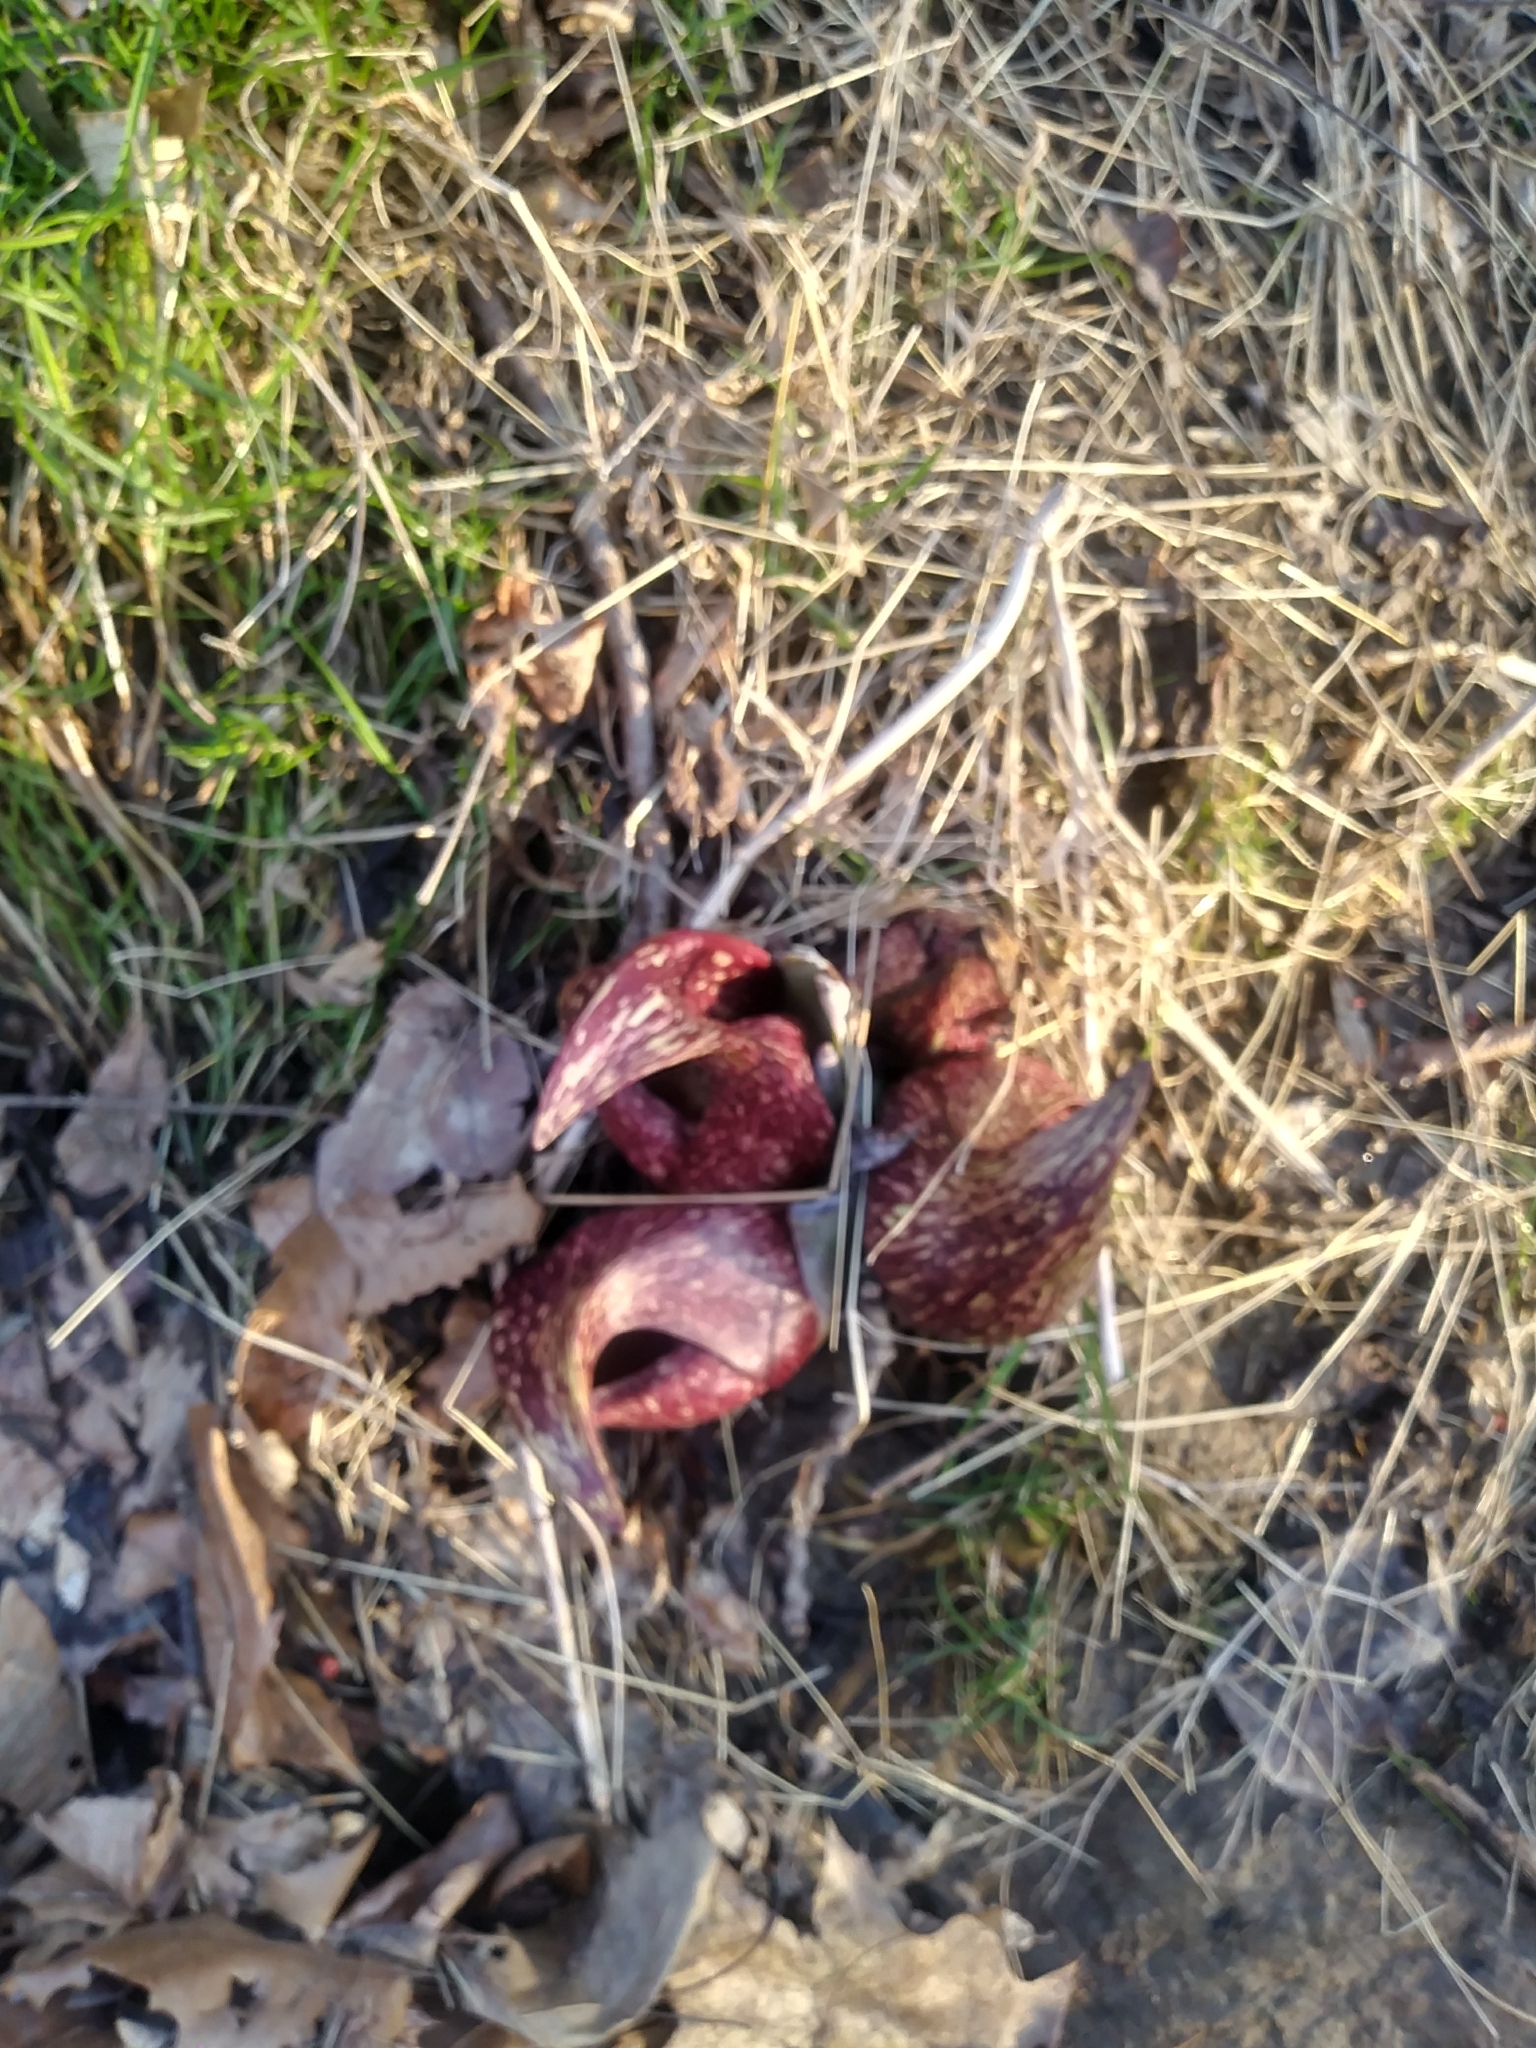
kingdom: Plantae
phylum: Tracheophyta
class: Liliopsida
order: Alismatales
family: Araceae
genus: Symplocarpus
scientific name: Symplocarpus foetidus
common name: Eastern skunk cabbage
